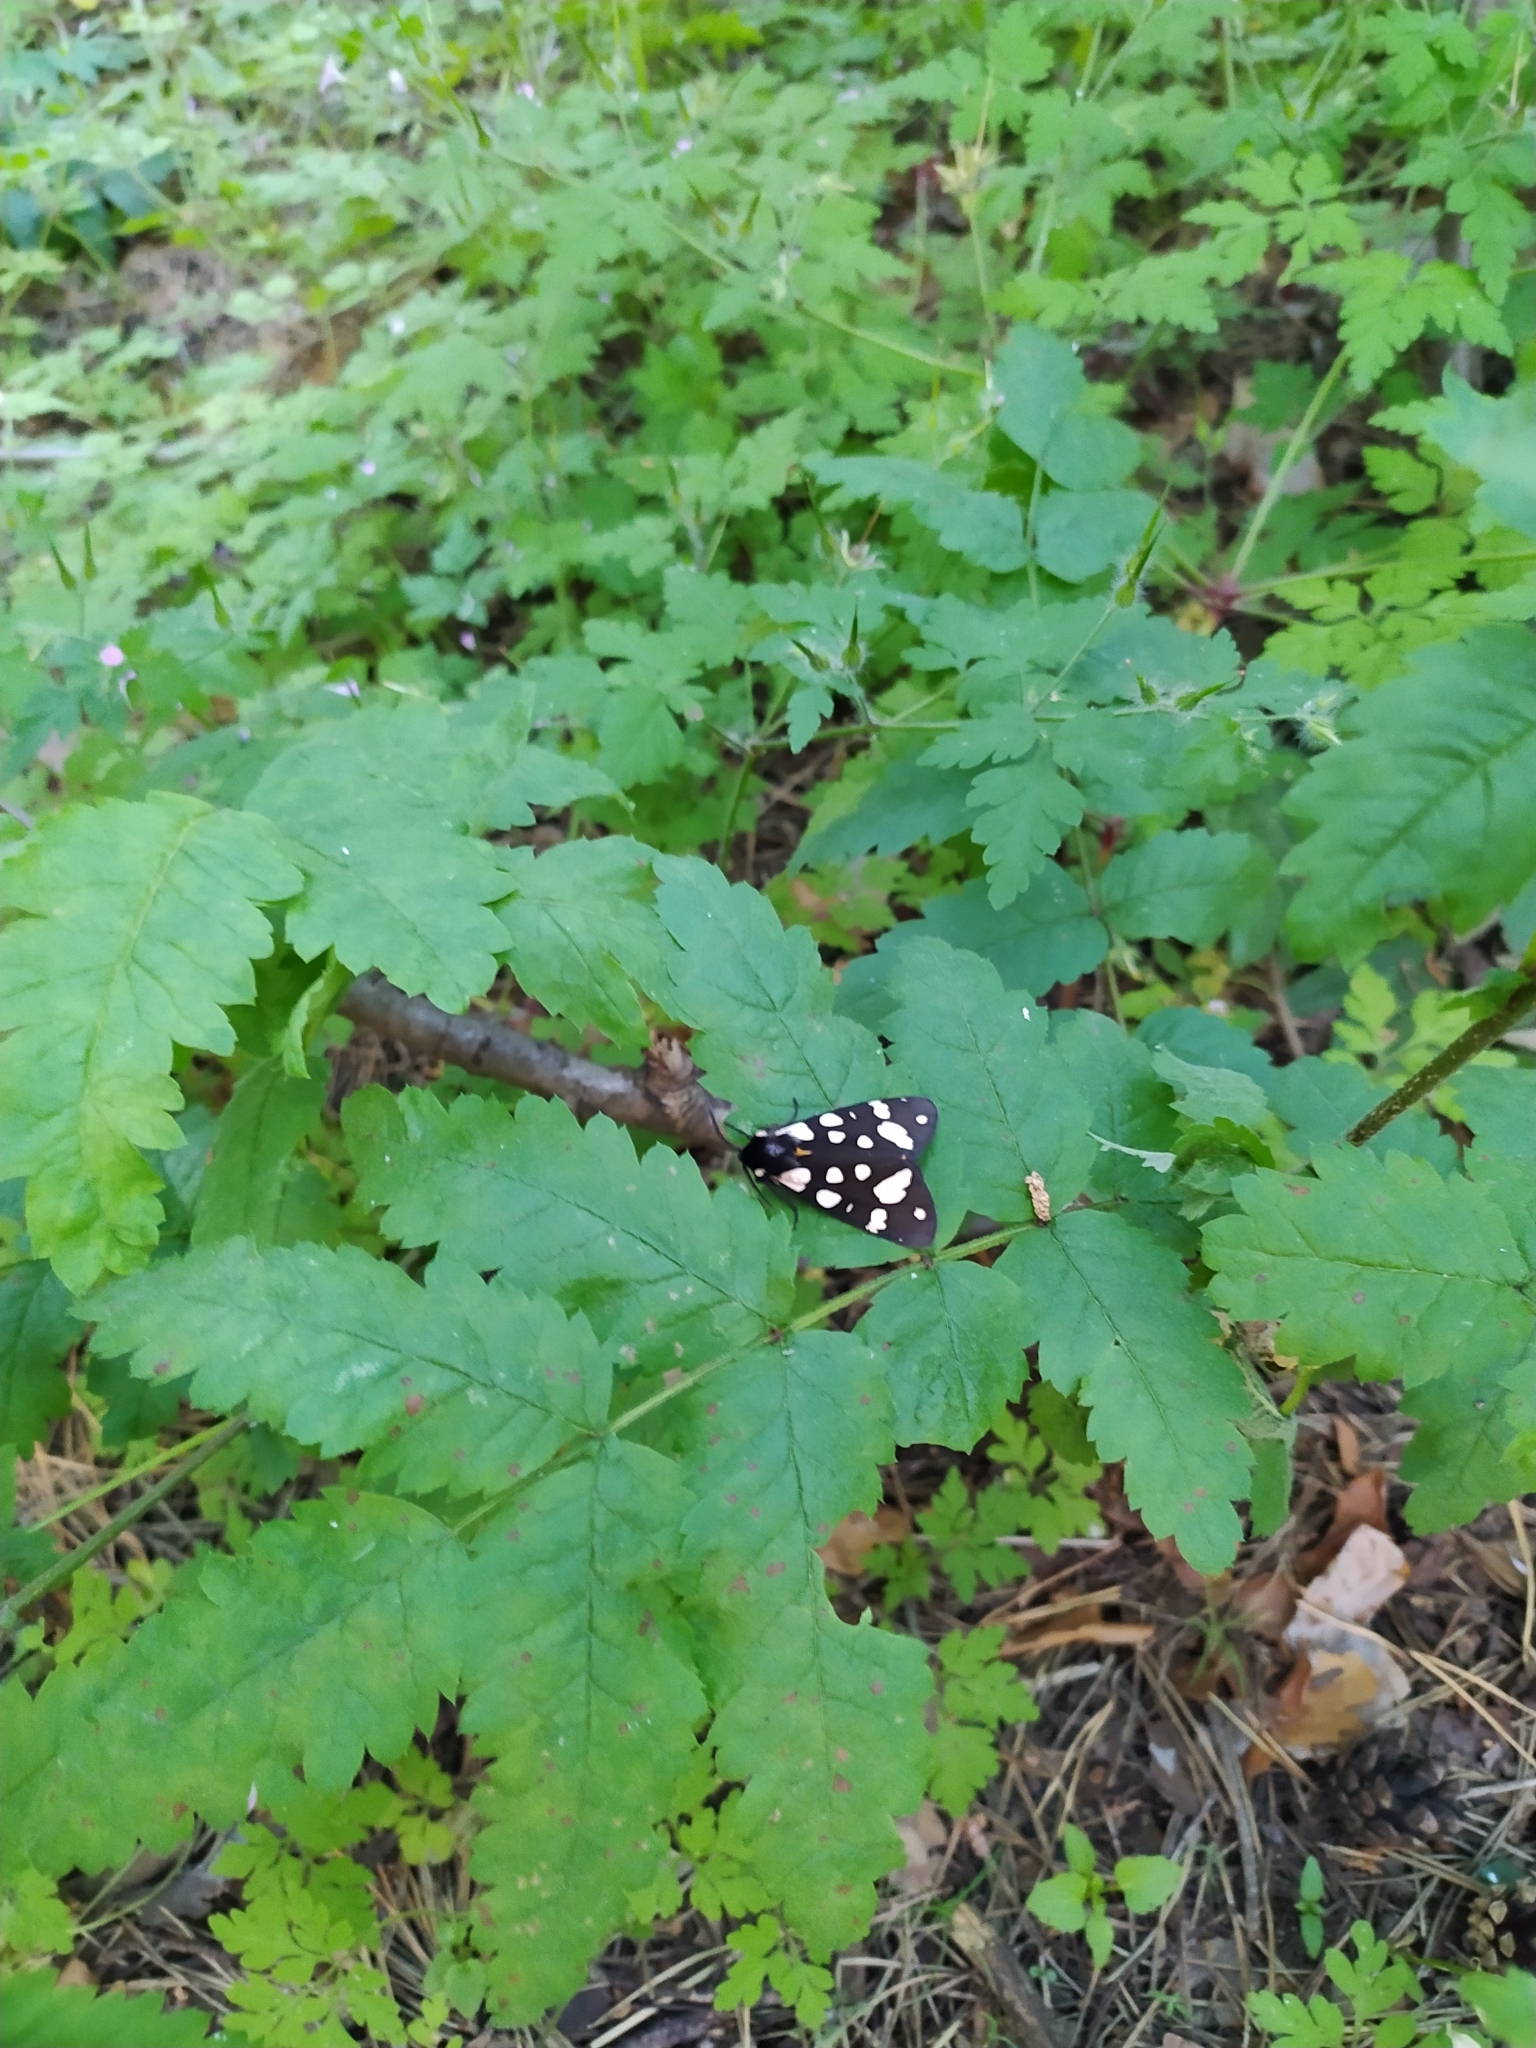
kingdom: Animalia
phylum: Arthropoda
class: Insecta
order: Lepidoptera
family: Erebidae
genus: Epicallia
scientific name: Epicallia villica
